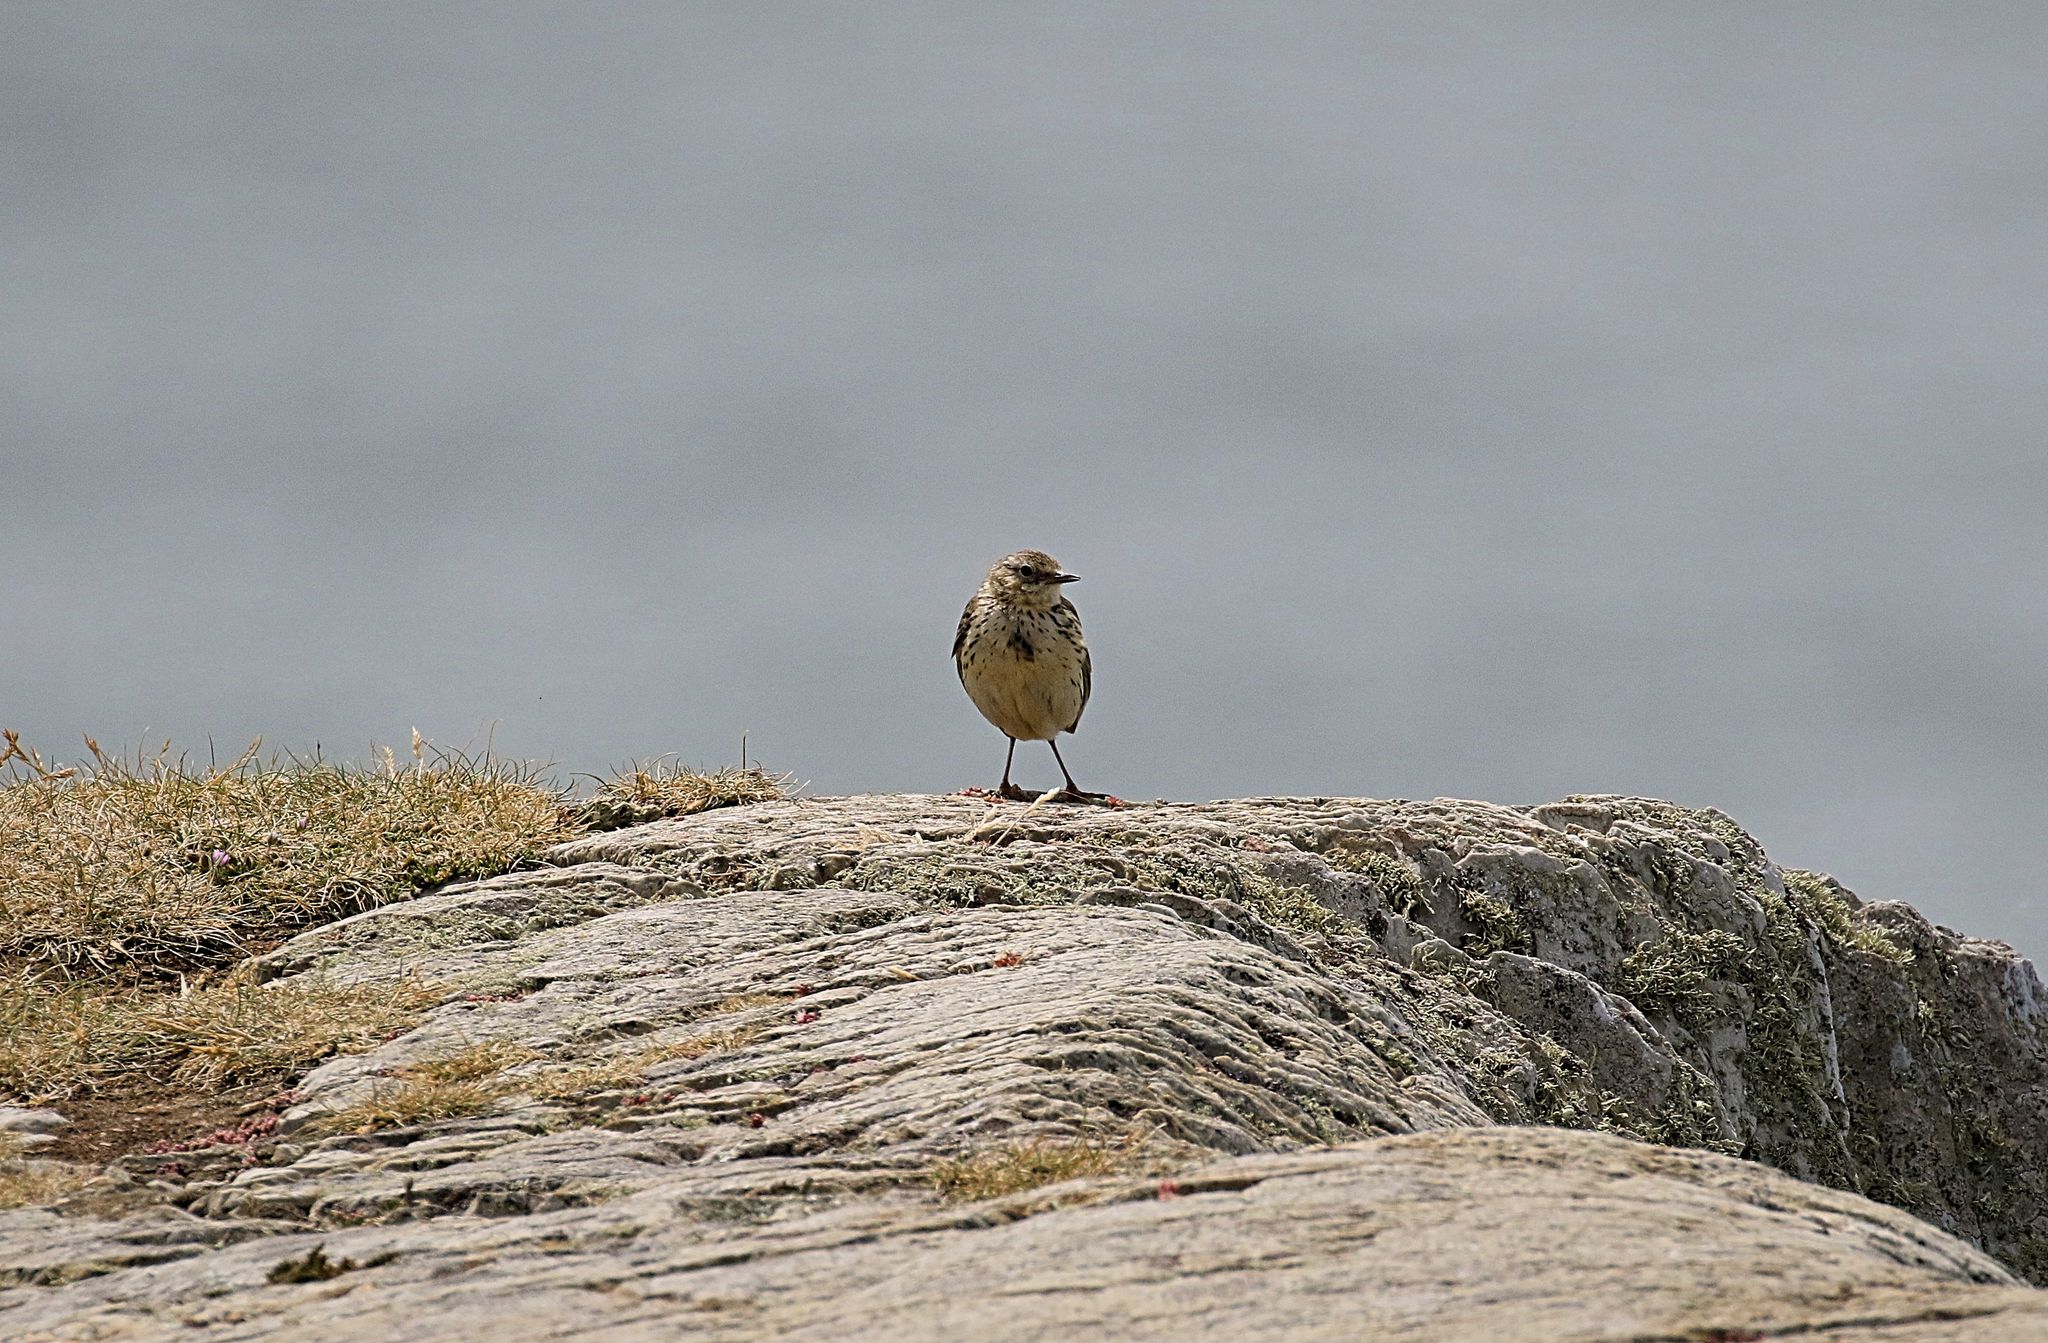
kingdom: Animalia
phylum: Chordata
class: Aves
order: Passeriformes
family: Motacillidae
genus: Anthus
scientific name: Anthus petrosus
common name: Eurasian rock pipit
